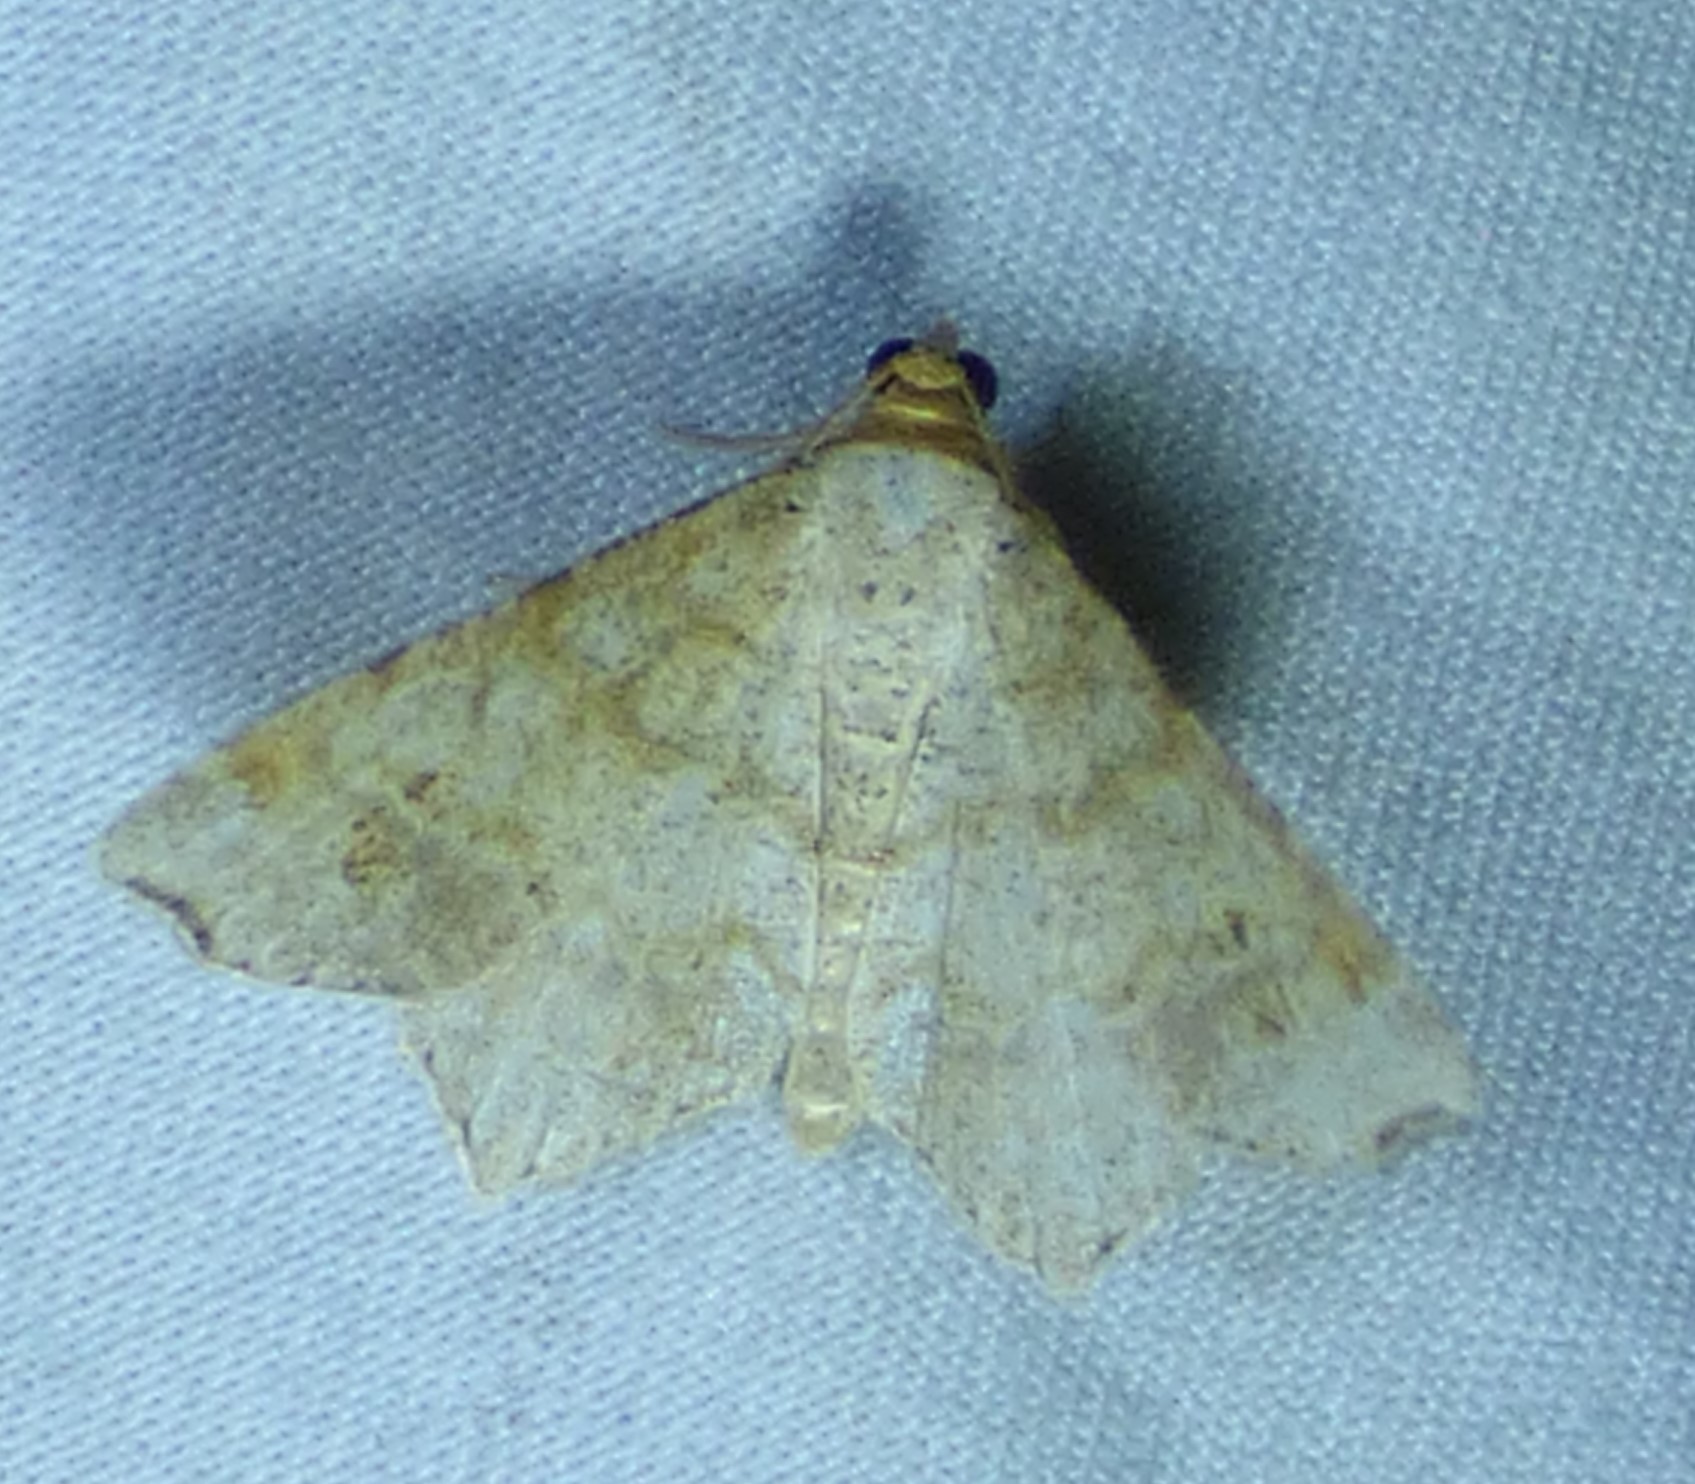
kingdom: Animalia
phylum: Arthropoda
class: Insecta
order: Lepidoptera
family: Geometridae
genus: Macaria
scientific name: Macaria aemulataria
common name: Common angle
